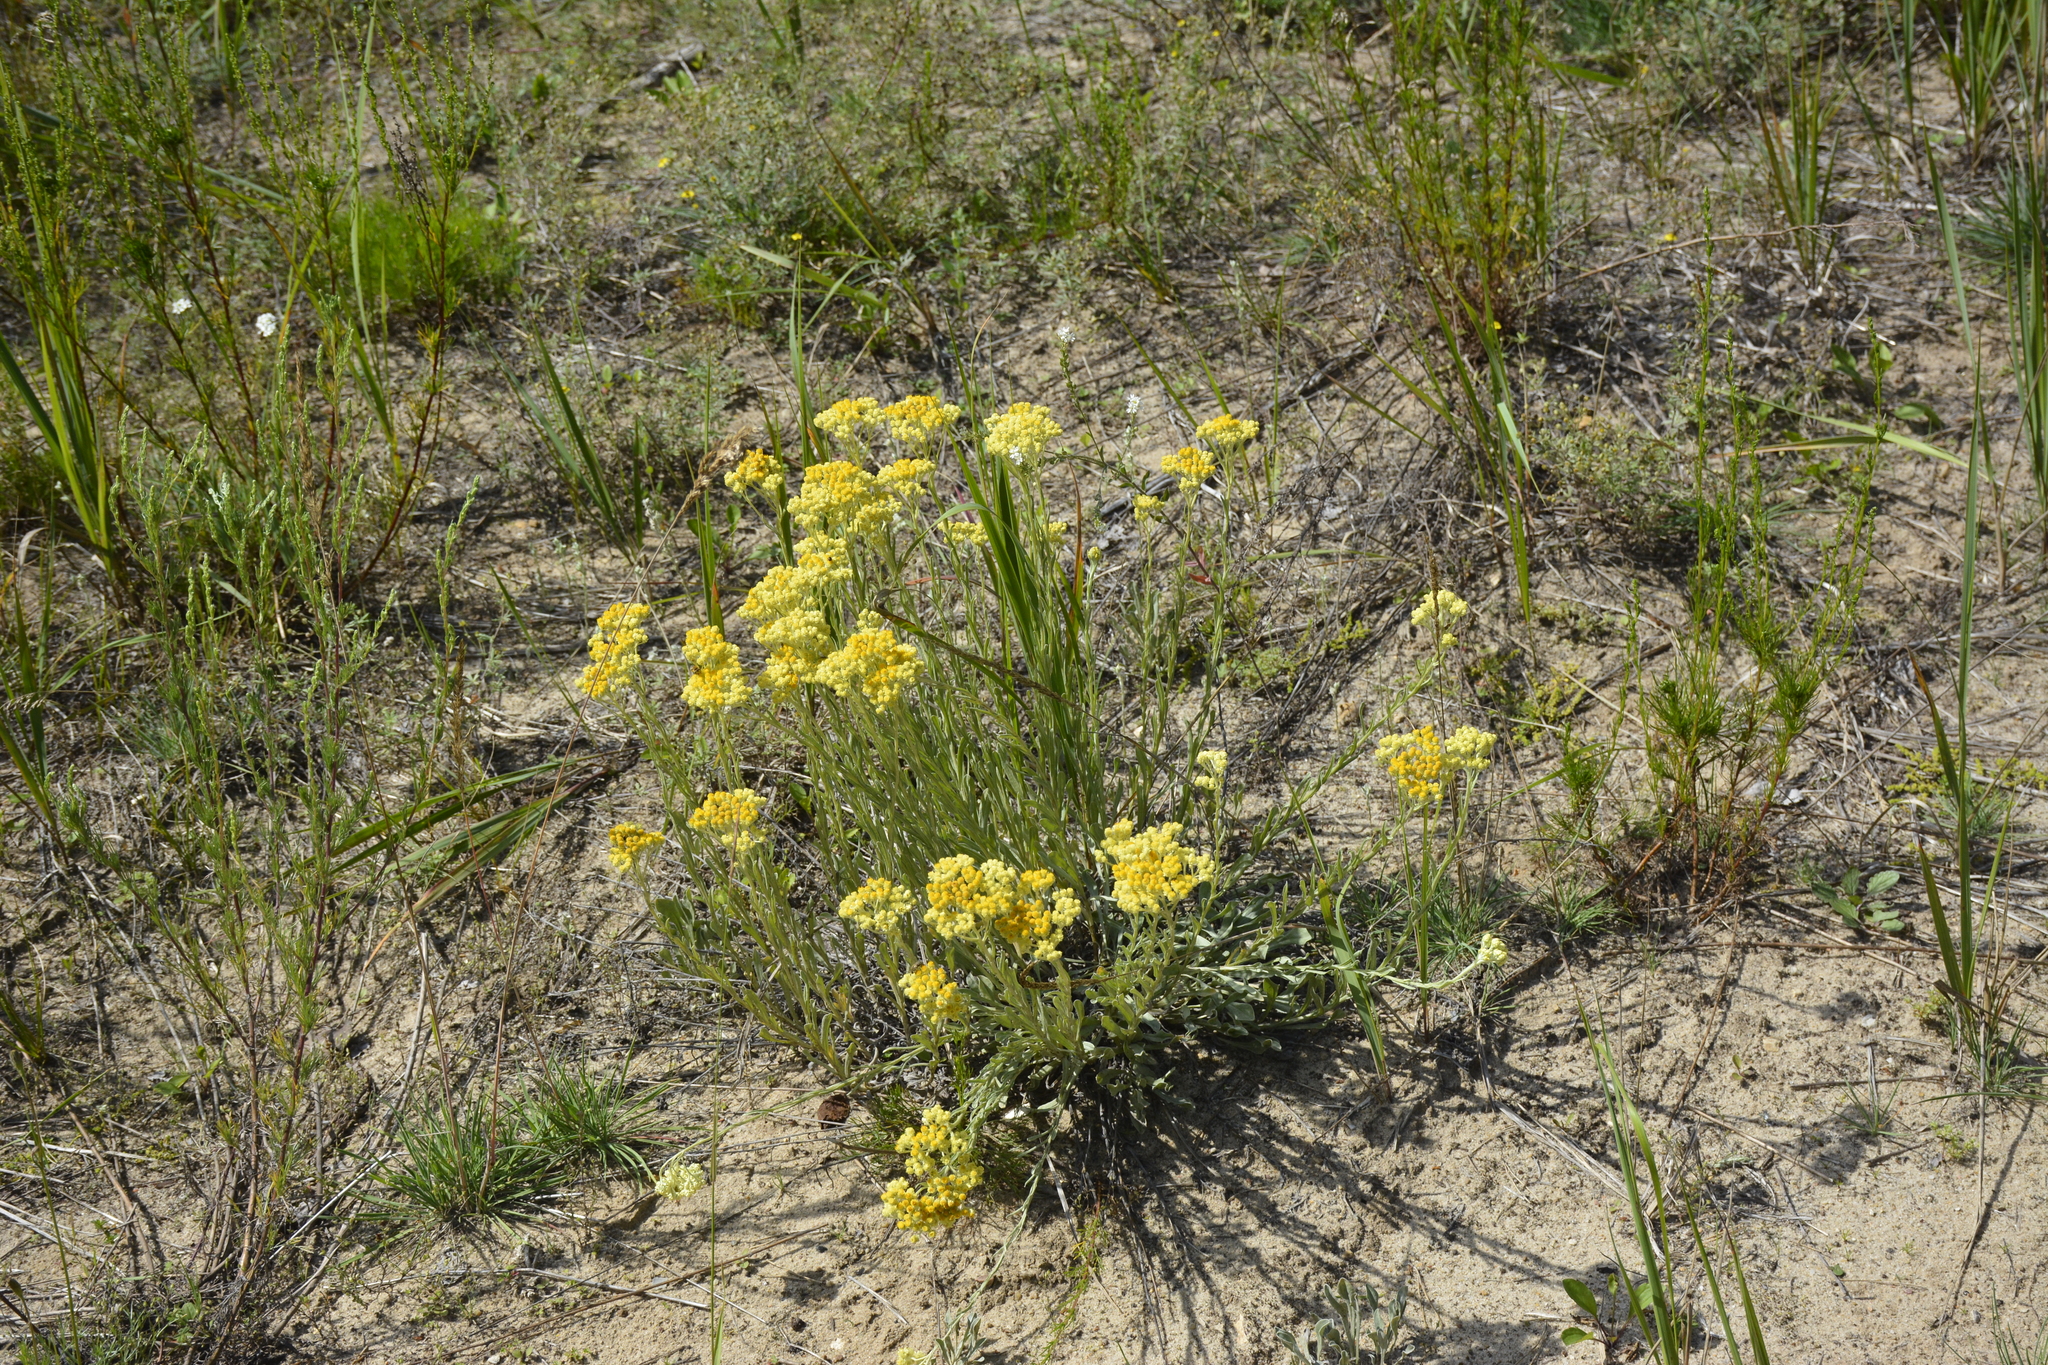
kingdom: Plantae
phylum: Tracheophyta
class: Magnoliopsida
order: Asterales
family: Asteraceae
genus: Helichrysum
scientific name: Helichrysum arenarium
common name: Strawflower
